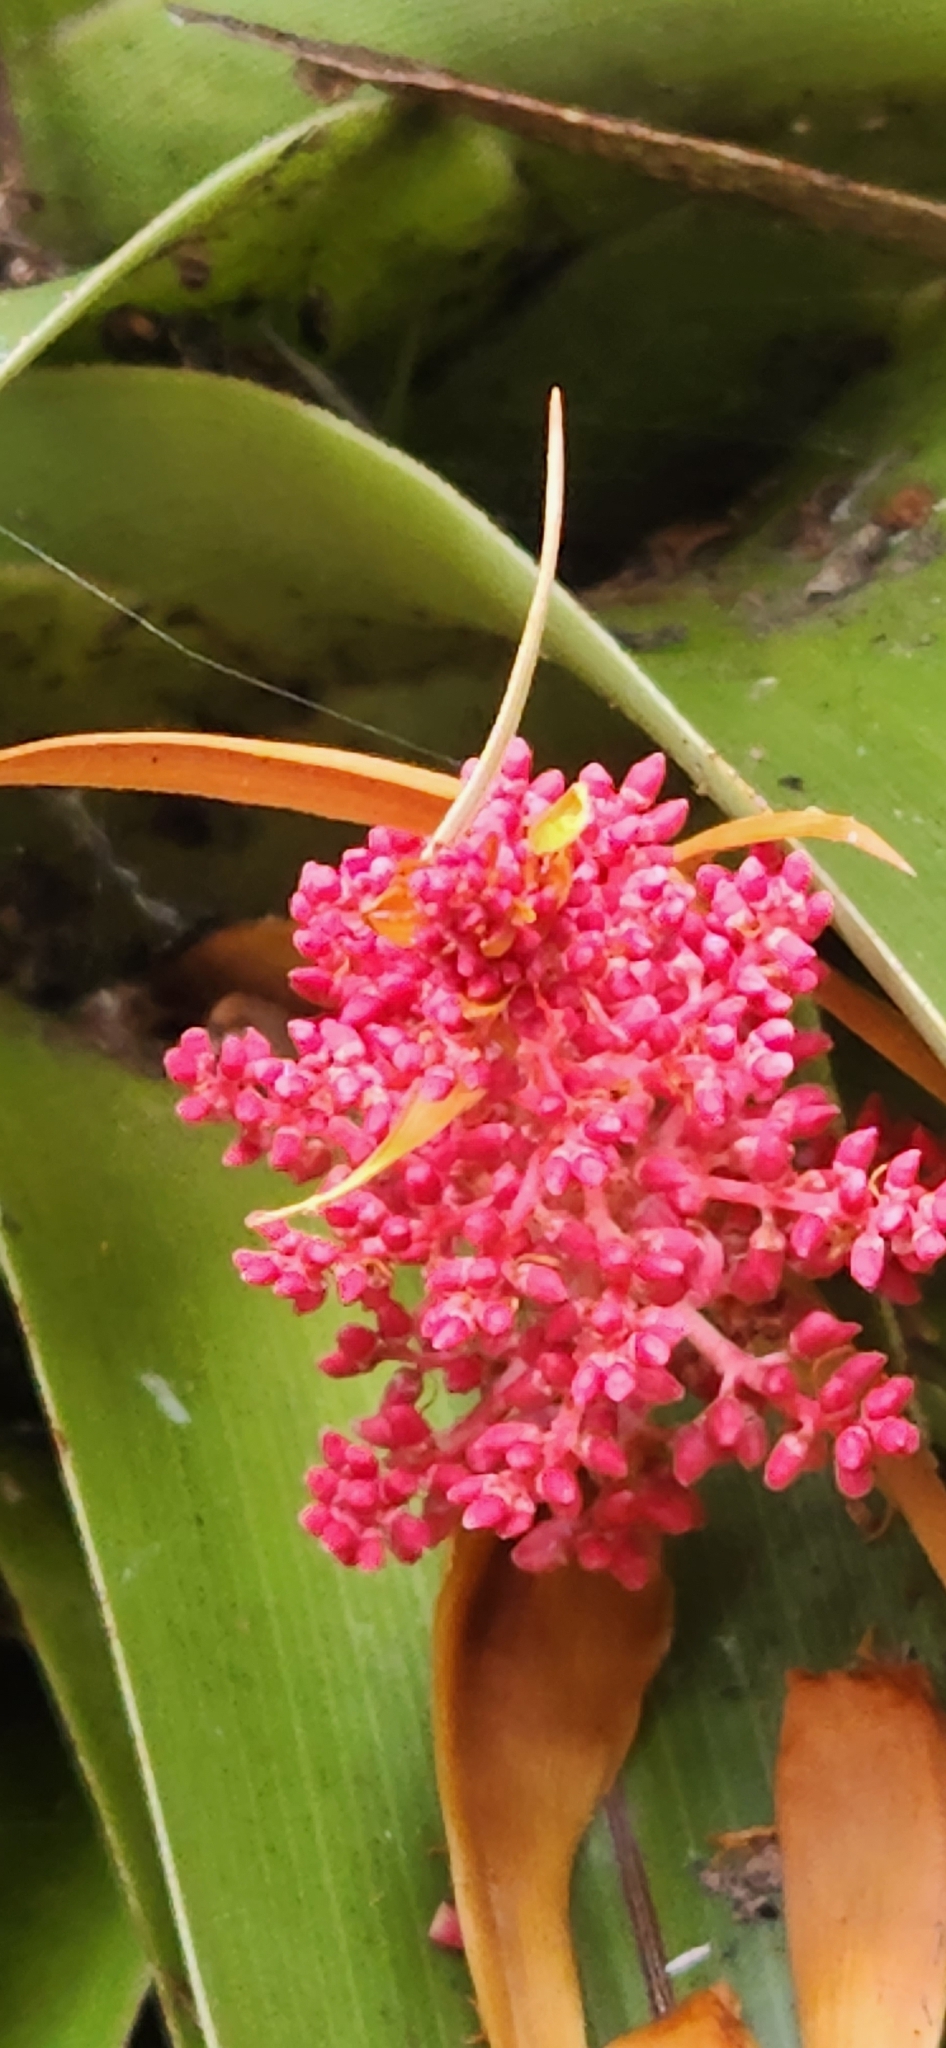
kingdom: Plantae
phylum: Tracheophyta
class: Magnoliopsida
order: Ericales
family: Ericaceae
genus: Dracophyllum
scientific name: Dracophyllum pandanifolium
